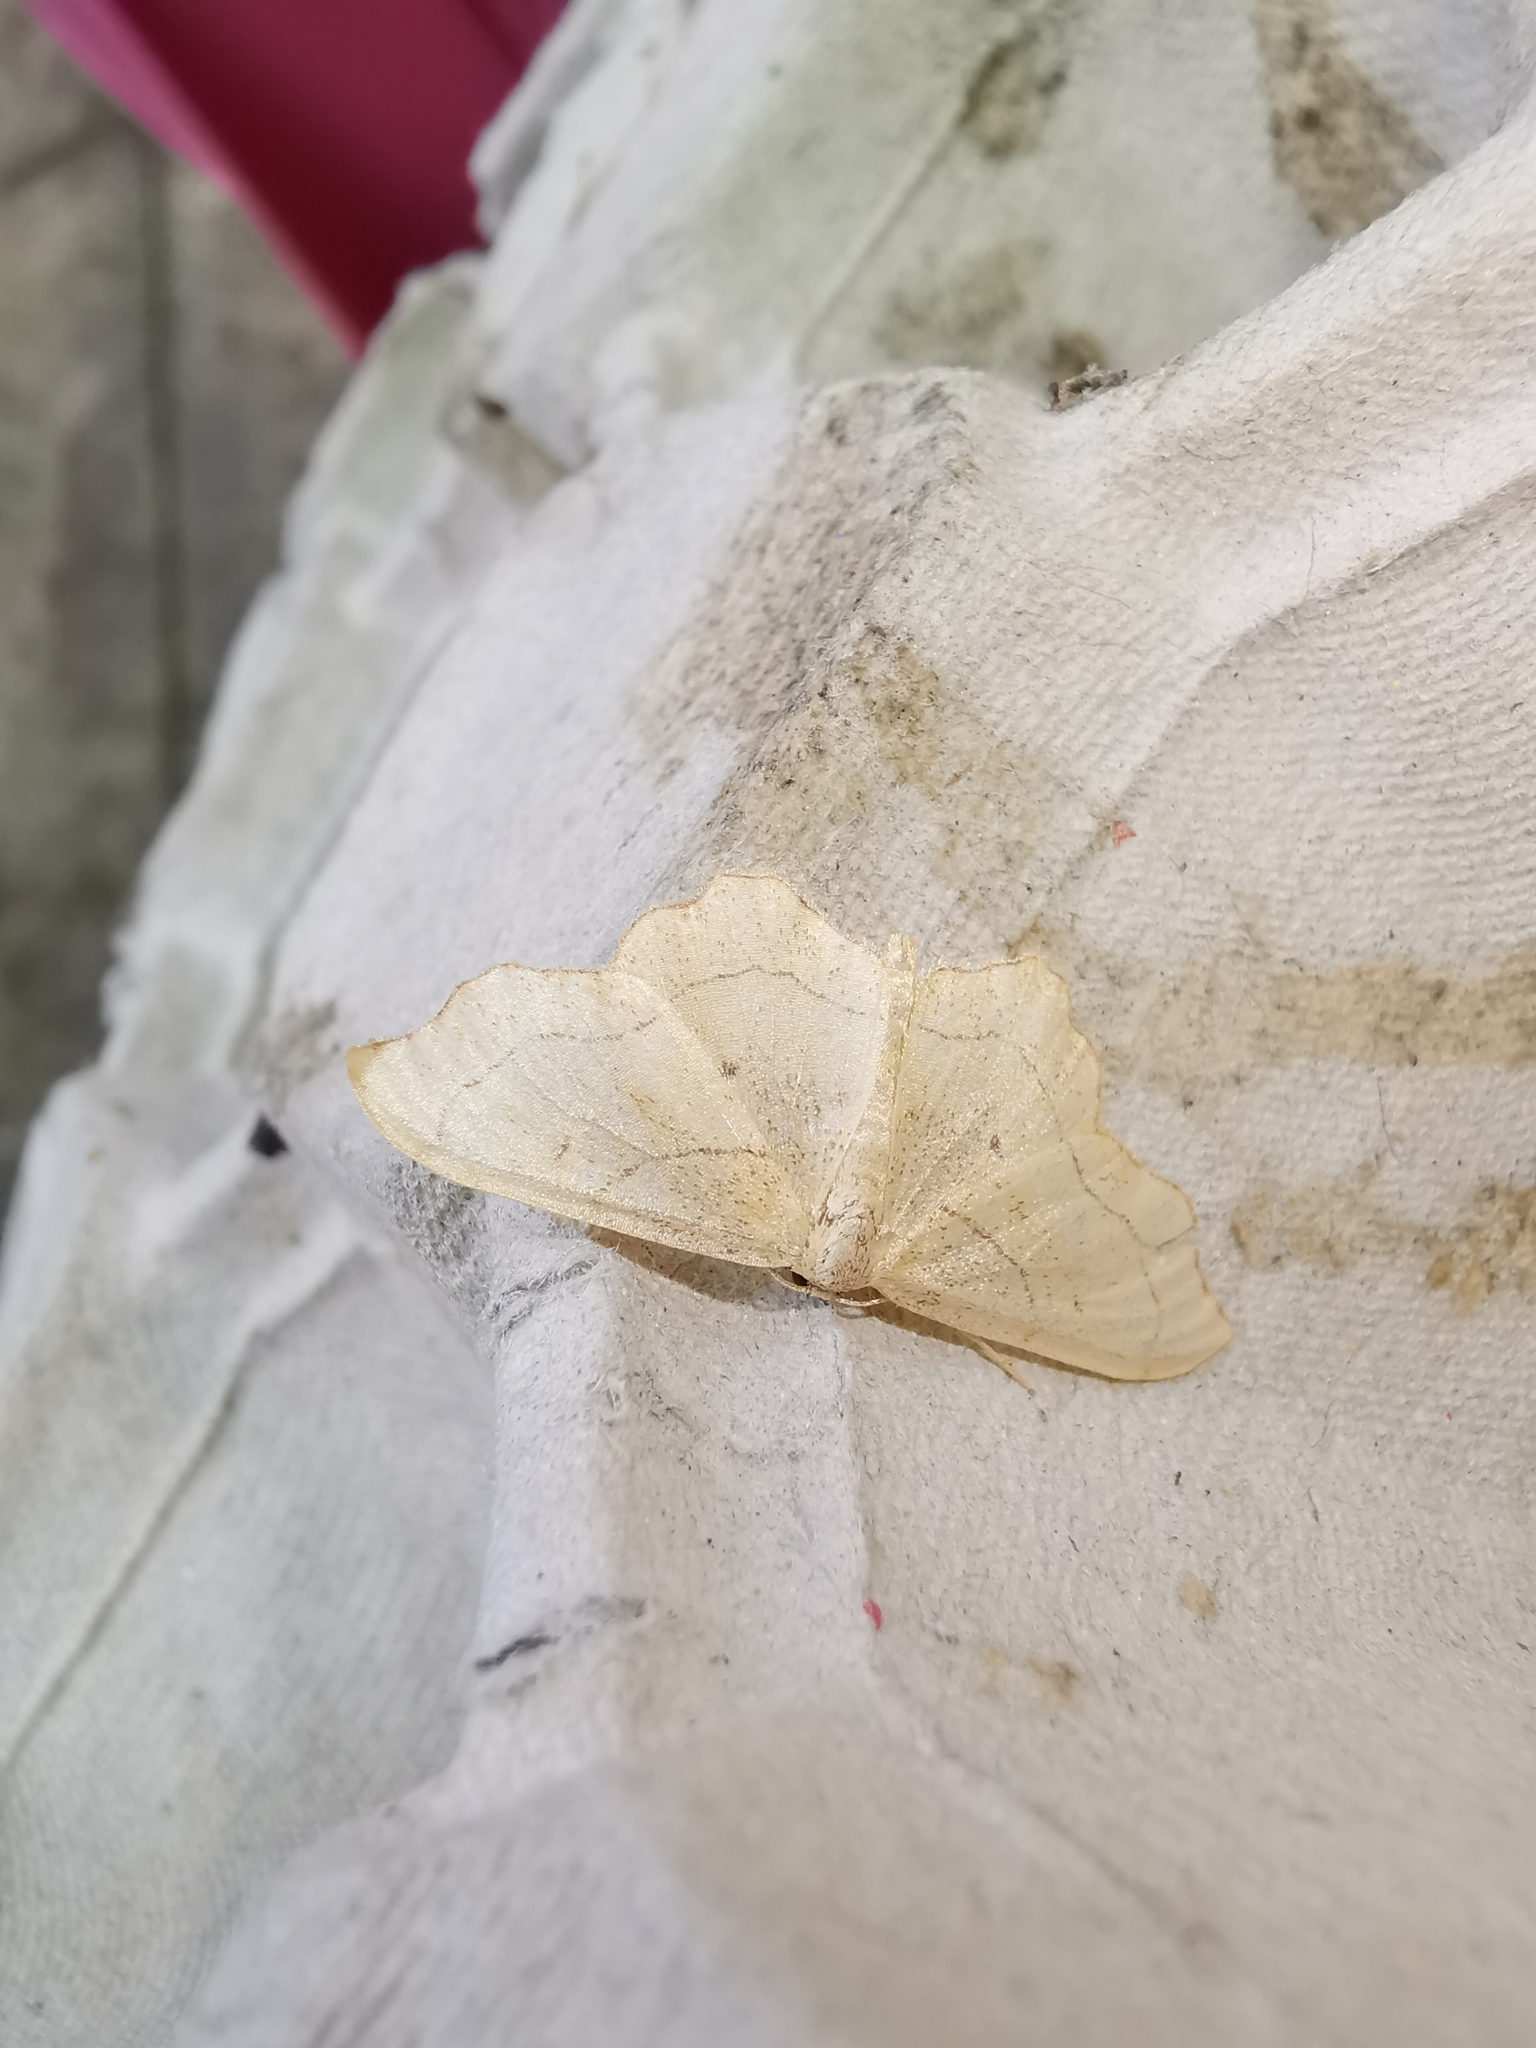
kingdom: Animalia
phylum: Arthropoda
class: Insecta
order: Lepidoptera
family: Geometridae
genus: Idaea
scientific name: Idaea emarginata
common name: Small scallop
